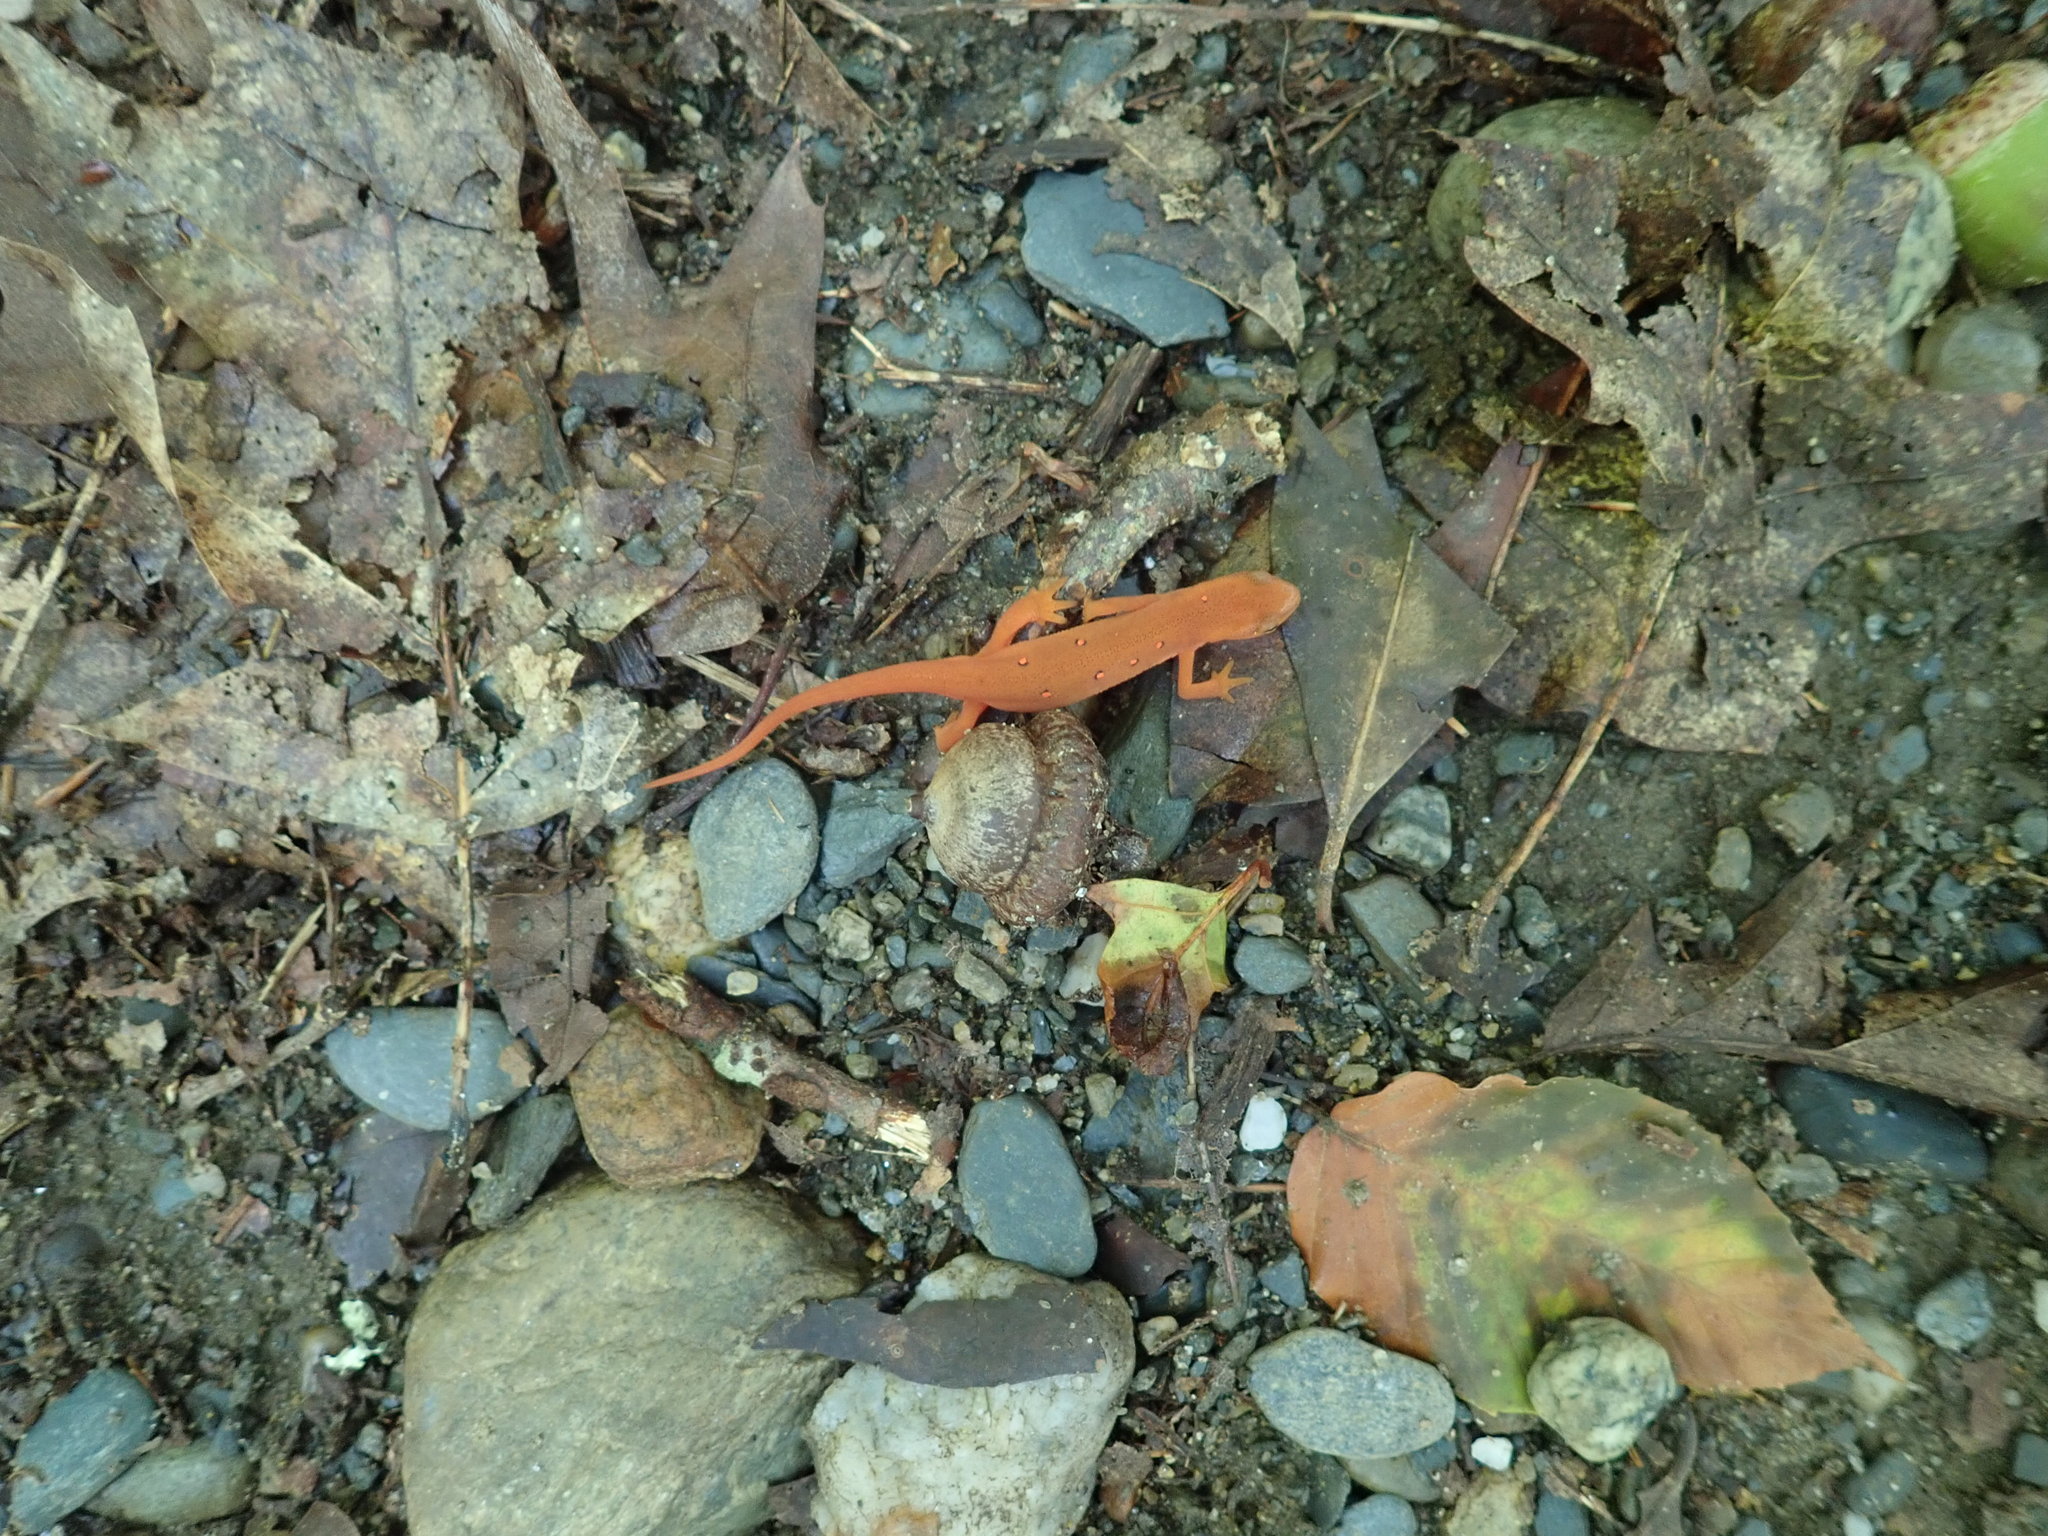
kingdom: Animalia
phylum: Chordata
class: Amphibia
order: Caudata
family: Salamandridae
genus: Notophthalmus
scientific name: Notophthalmus viridescens
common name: Eastern newt
